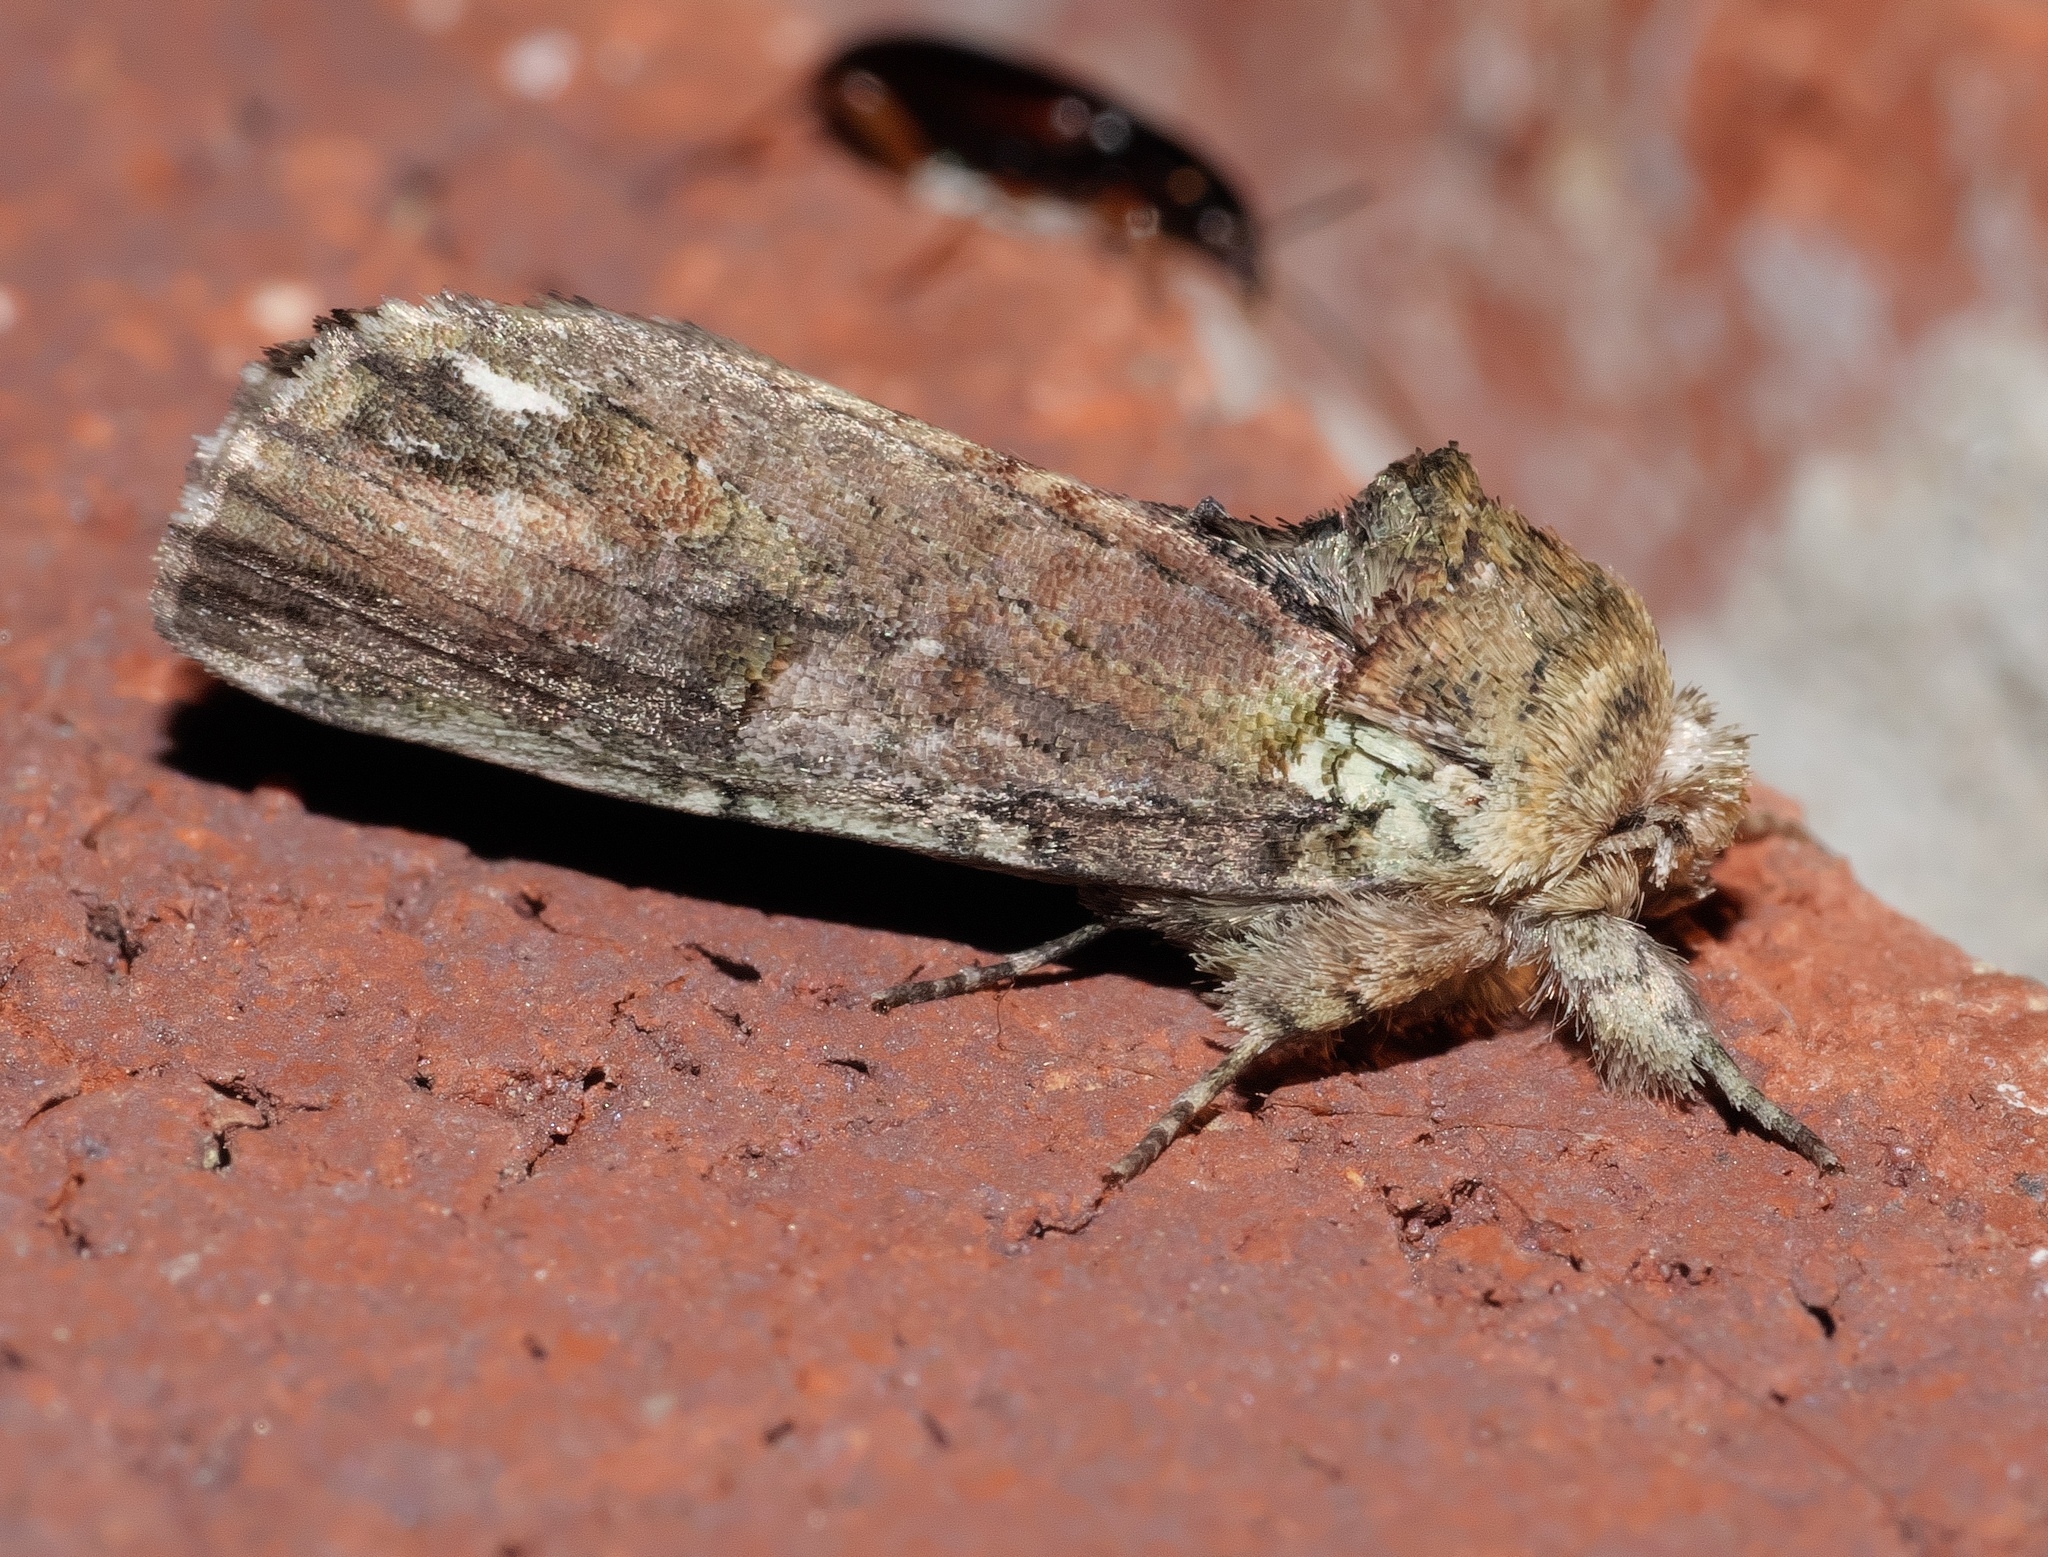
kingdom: Animalia
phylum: Arthropoda
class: Insecta
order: Lepidoptera
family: Notodontidae
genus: Schizura
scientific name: Schizura
